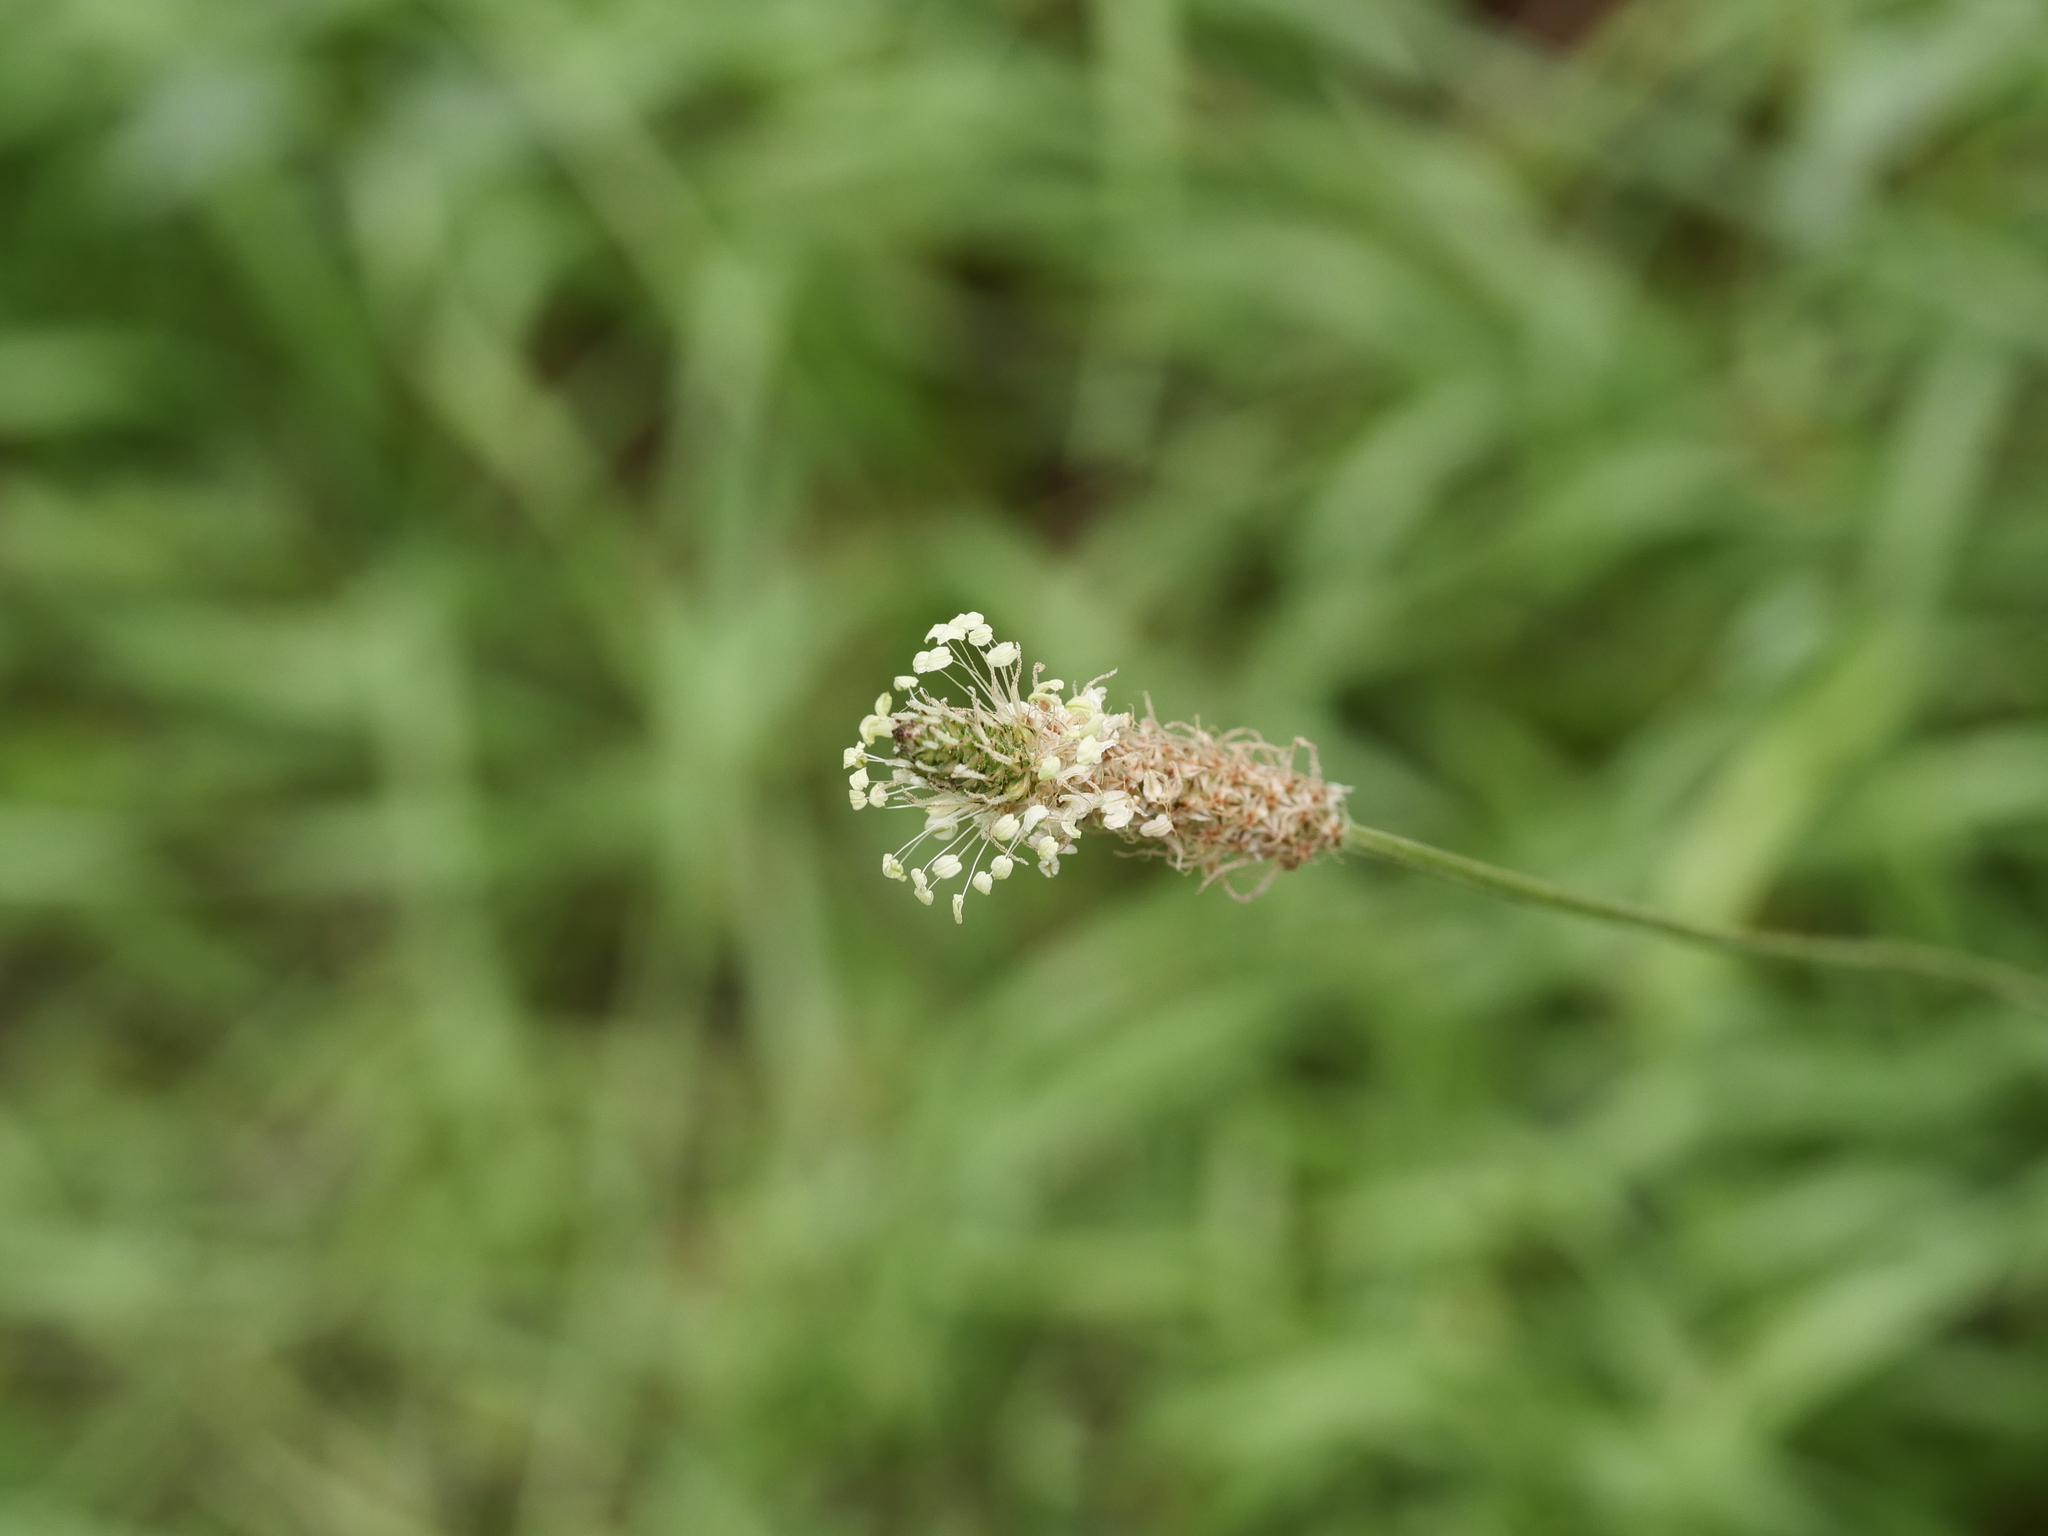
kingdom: Plantae
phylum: Tracheophyta
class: Magnoliopsida
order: Lamiales
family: Plantaginaceae
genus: Plantago
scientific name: Plantago lanceolata
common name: Ribwort plantain
